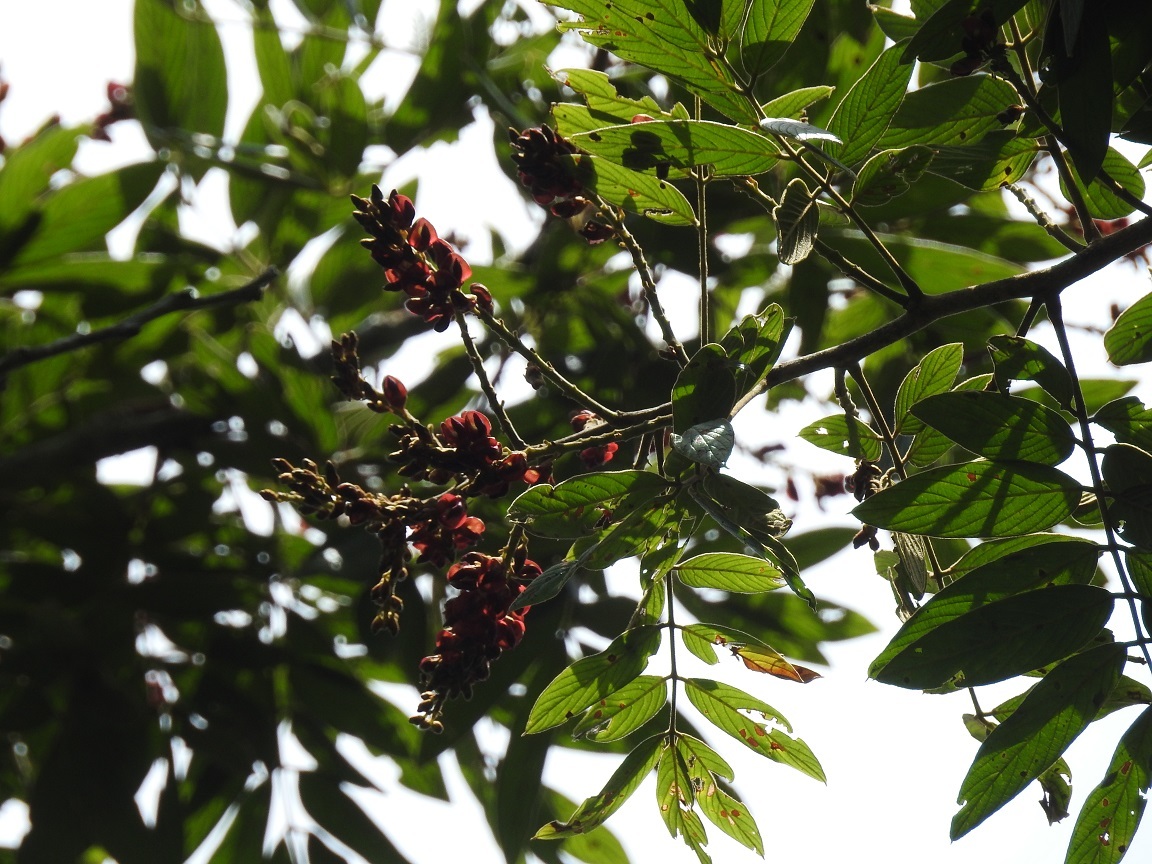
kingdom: Plantae
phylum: Tracheophyta
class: Magnoliopsida
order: Fabales
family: Fabaceae
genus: Lonchocarpus
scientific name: Lonchocarpus rugosus
